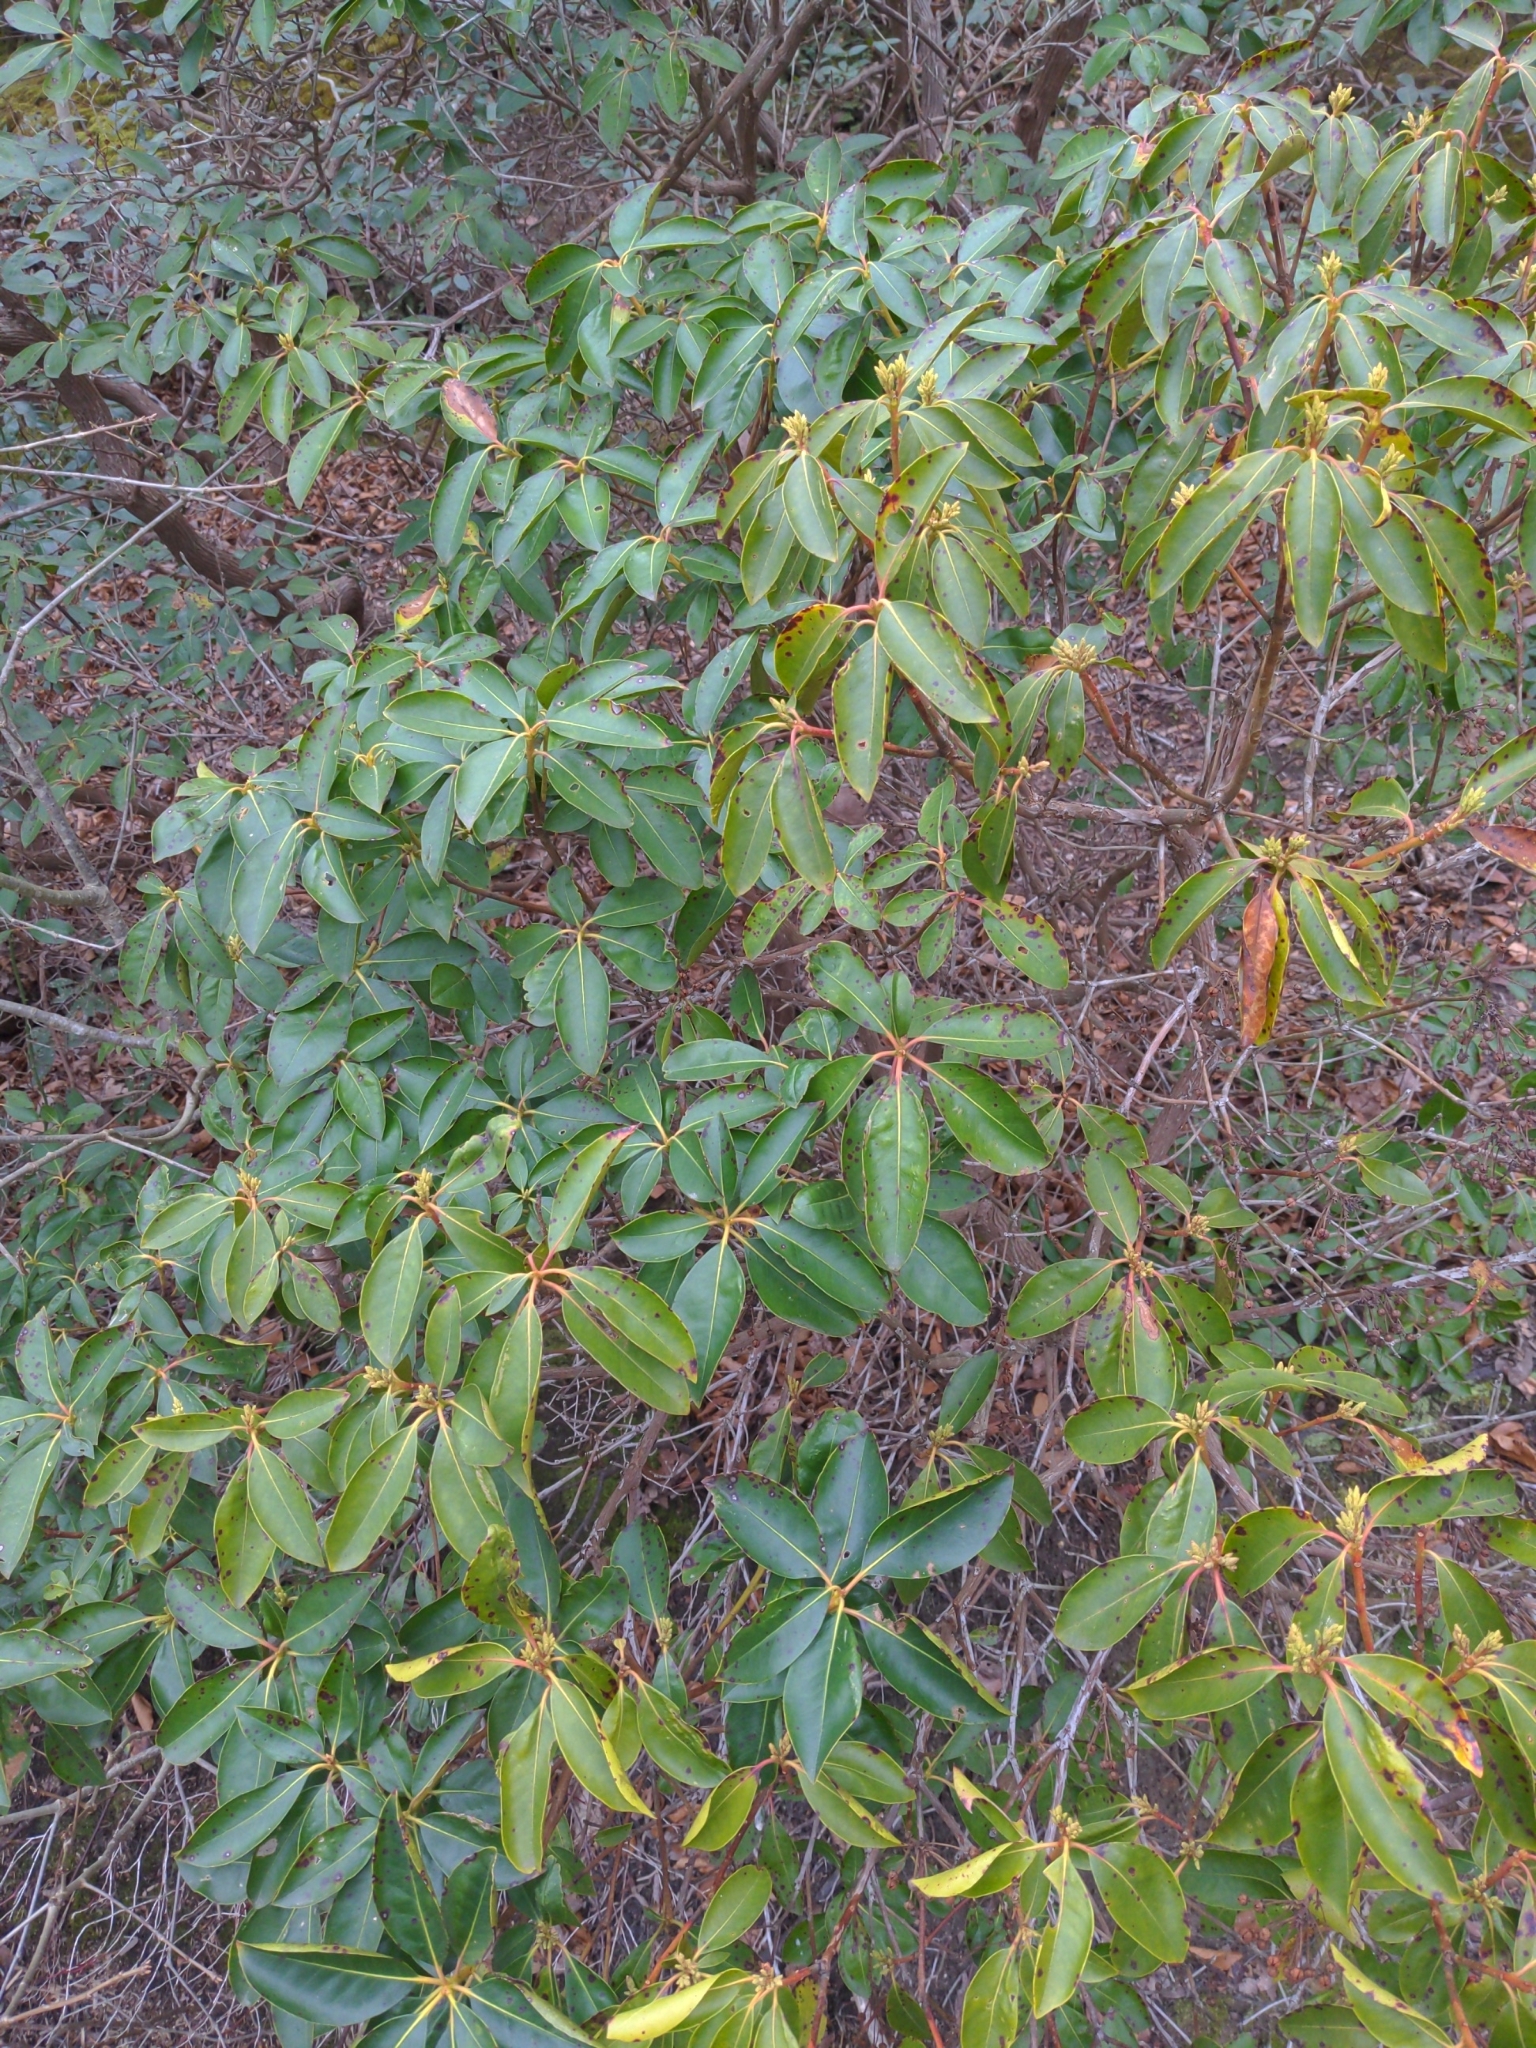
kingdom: Plantae
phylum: Tracheophyta
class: Magnoliopsida
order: Ericales
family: Ericaceae
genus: Kalmia
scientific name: Kalmia latifolia
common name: Mountain-laurel
